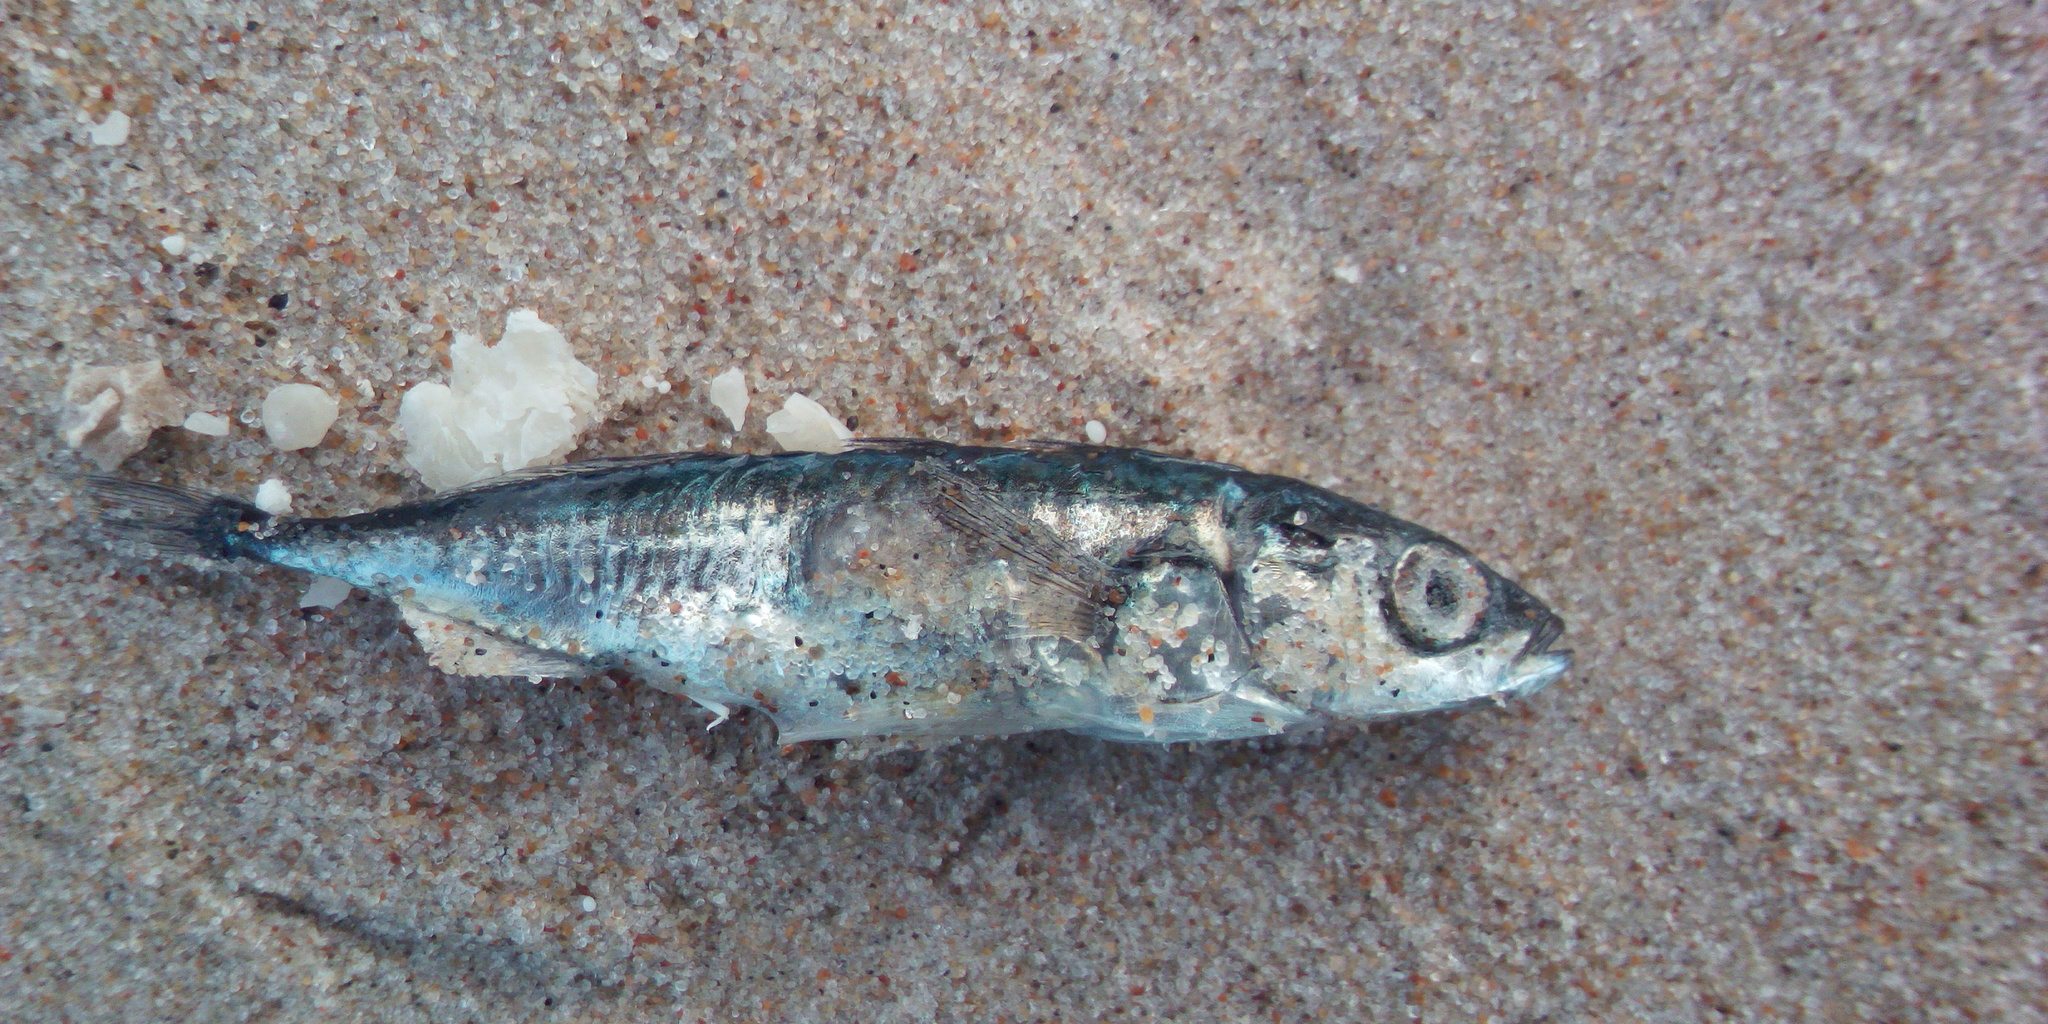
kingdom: Animalia
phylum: Chordata
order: Gasterosteiformes
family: Gasterosteidae
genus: Gasterosteus
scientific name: Gasterosteus aculeatus
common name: Three-spined stickleback
